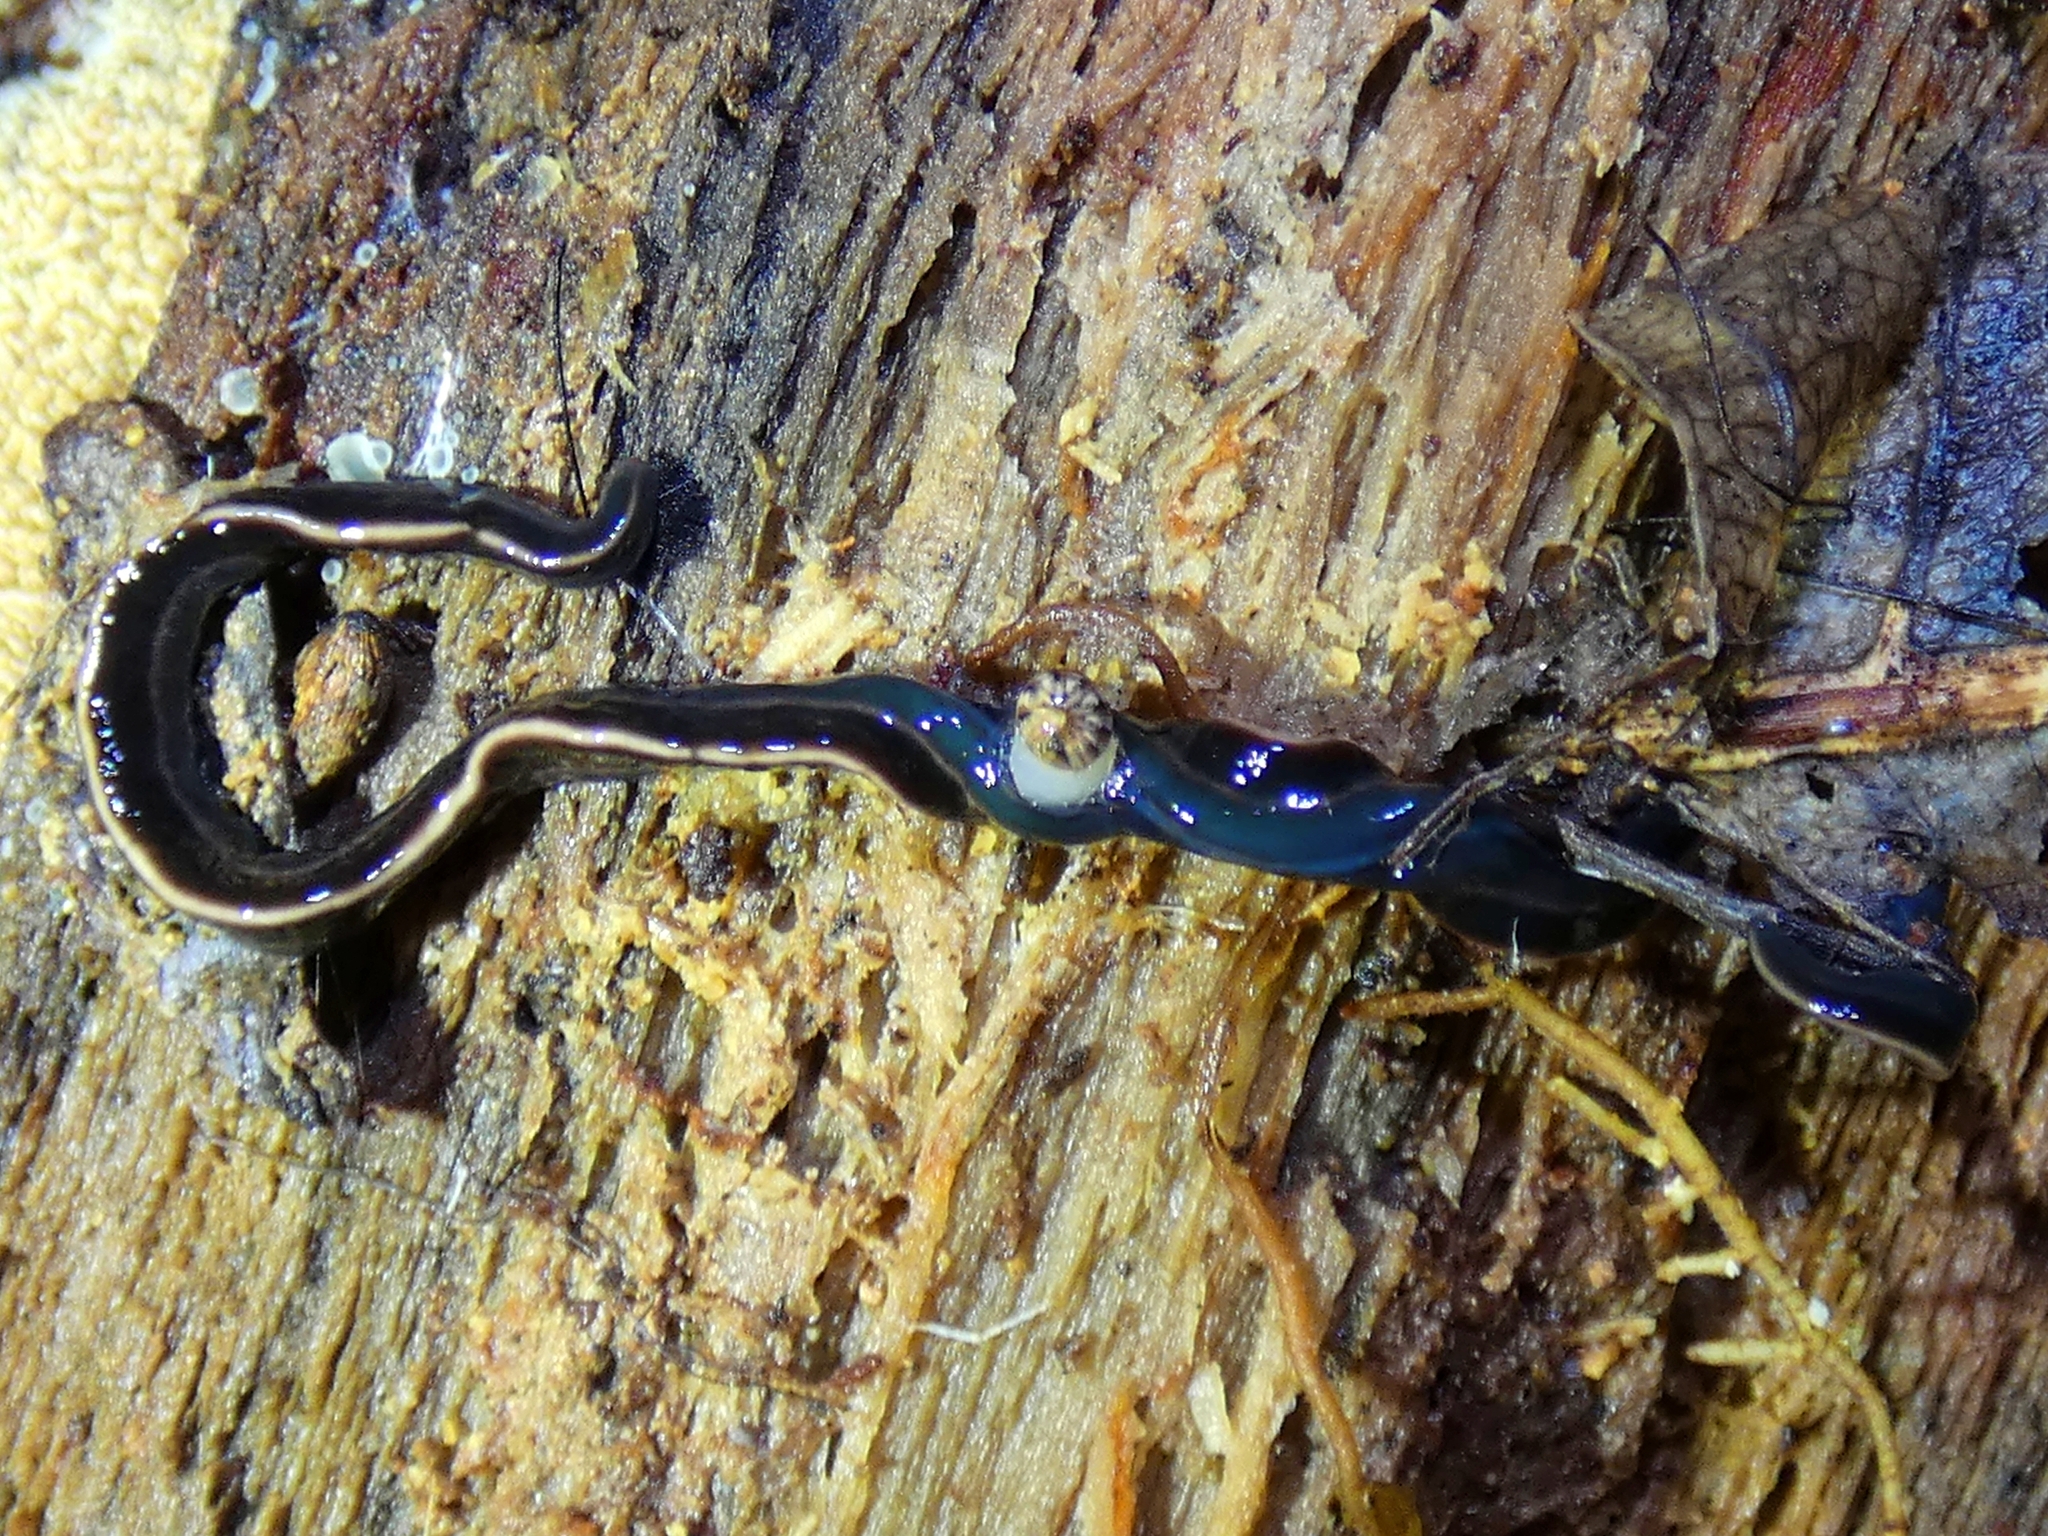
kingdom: Animalia
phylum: Platyhelminthes
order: Tricladida
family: Geoplanidae
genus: Caenoplana
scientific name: Caenoplana coerulea
